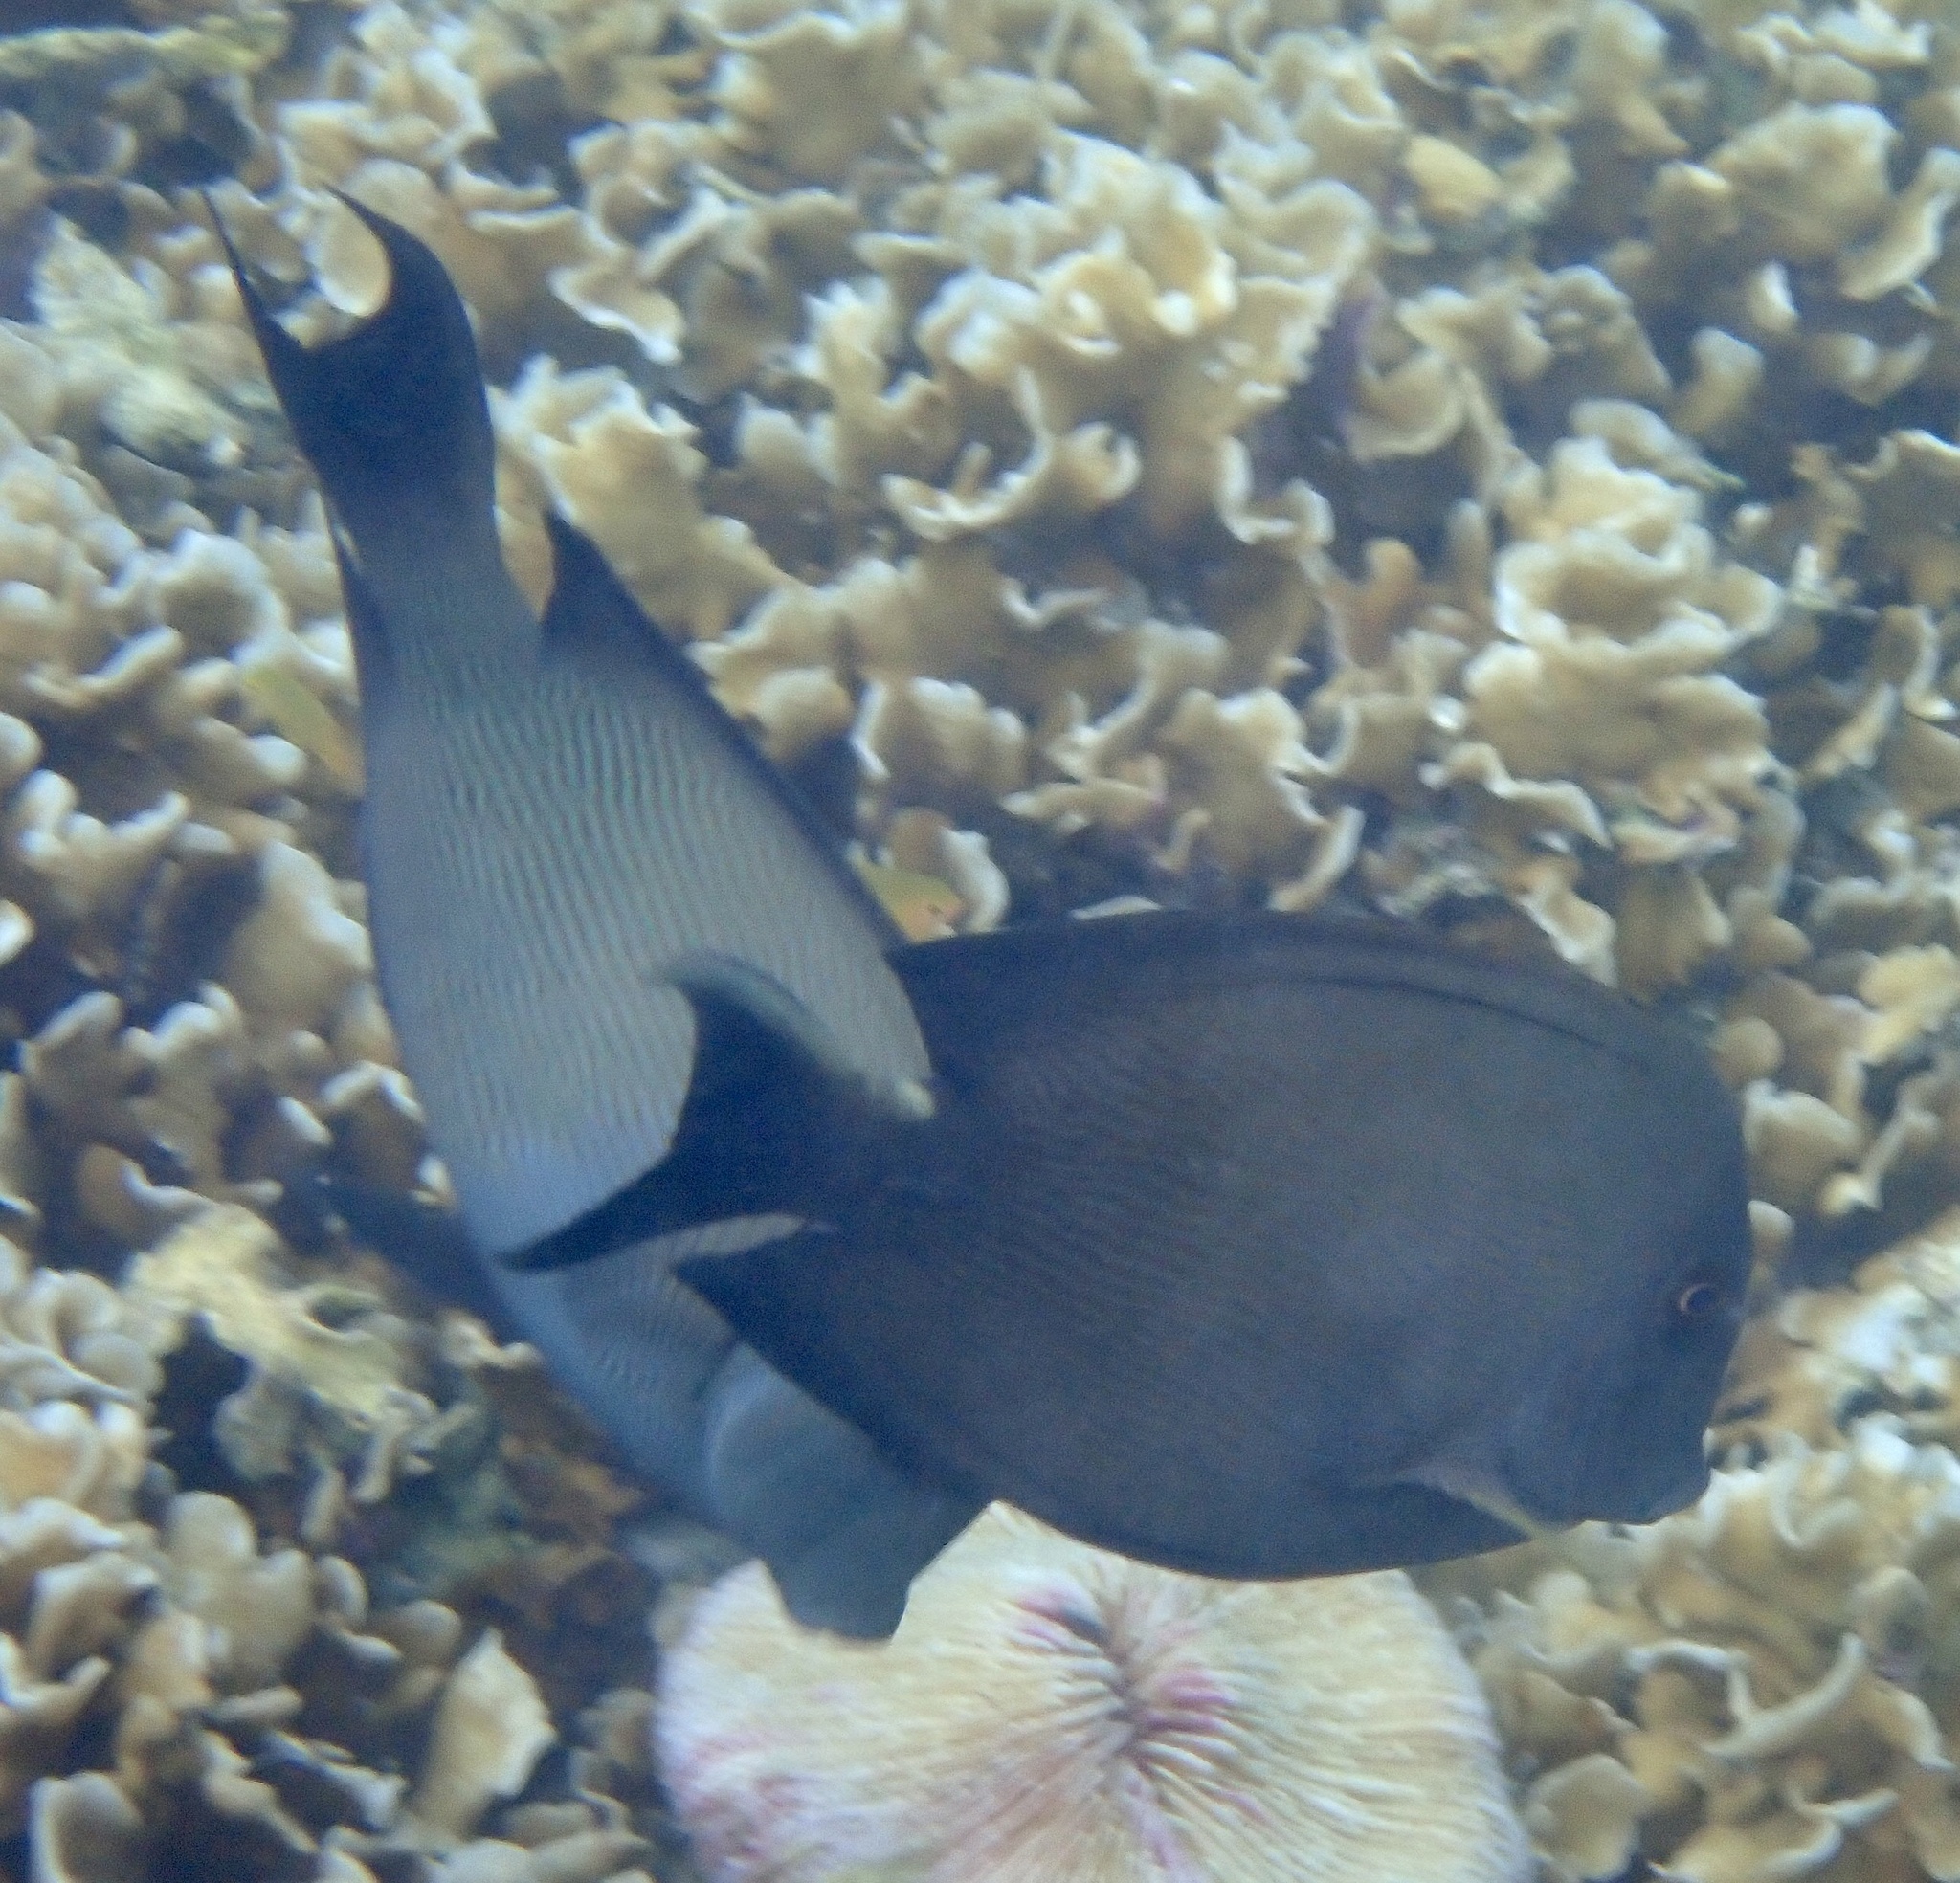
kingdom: Animalia
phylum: Chordata
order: Perciformes
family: Acanthuridae
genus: Ctenochaetus
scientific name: Ctenochaetus striatus
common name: Bristle-toothed surgeonfish
